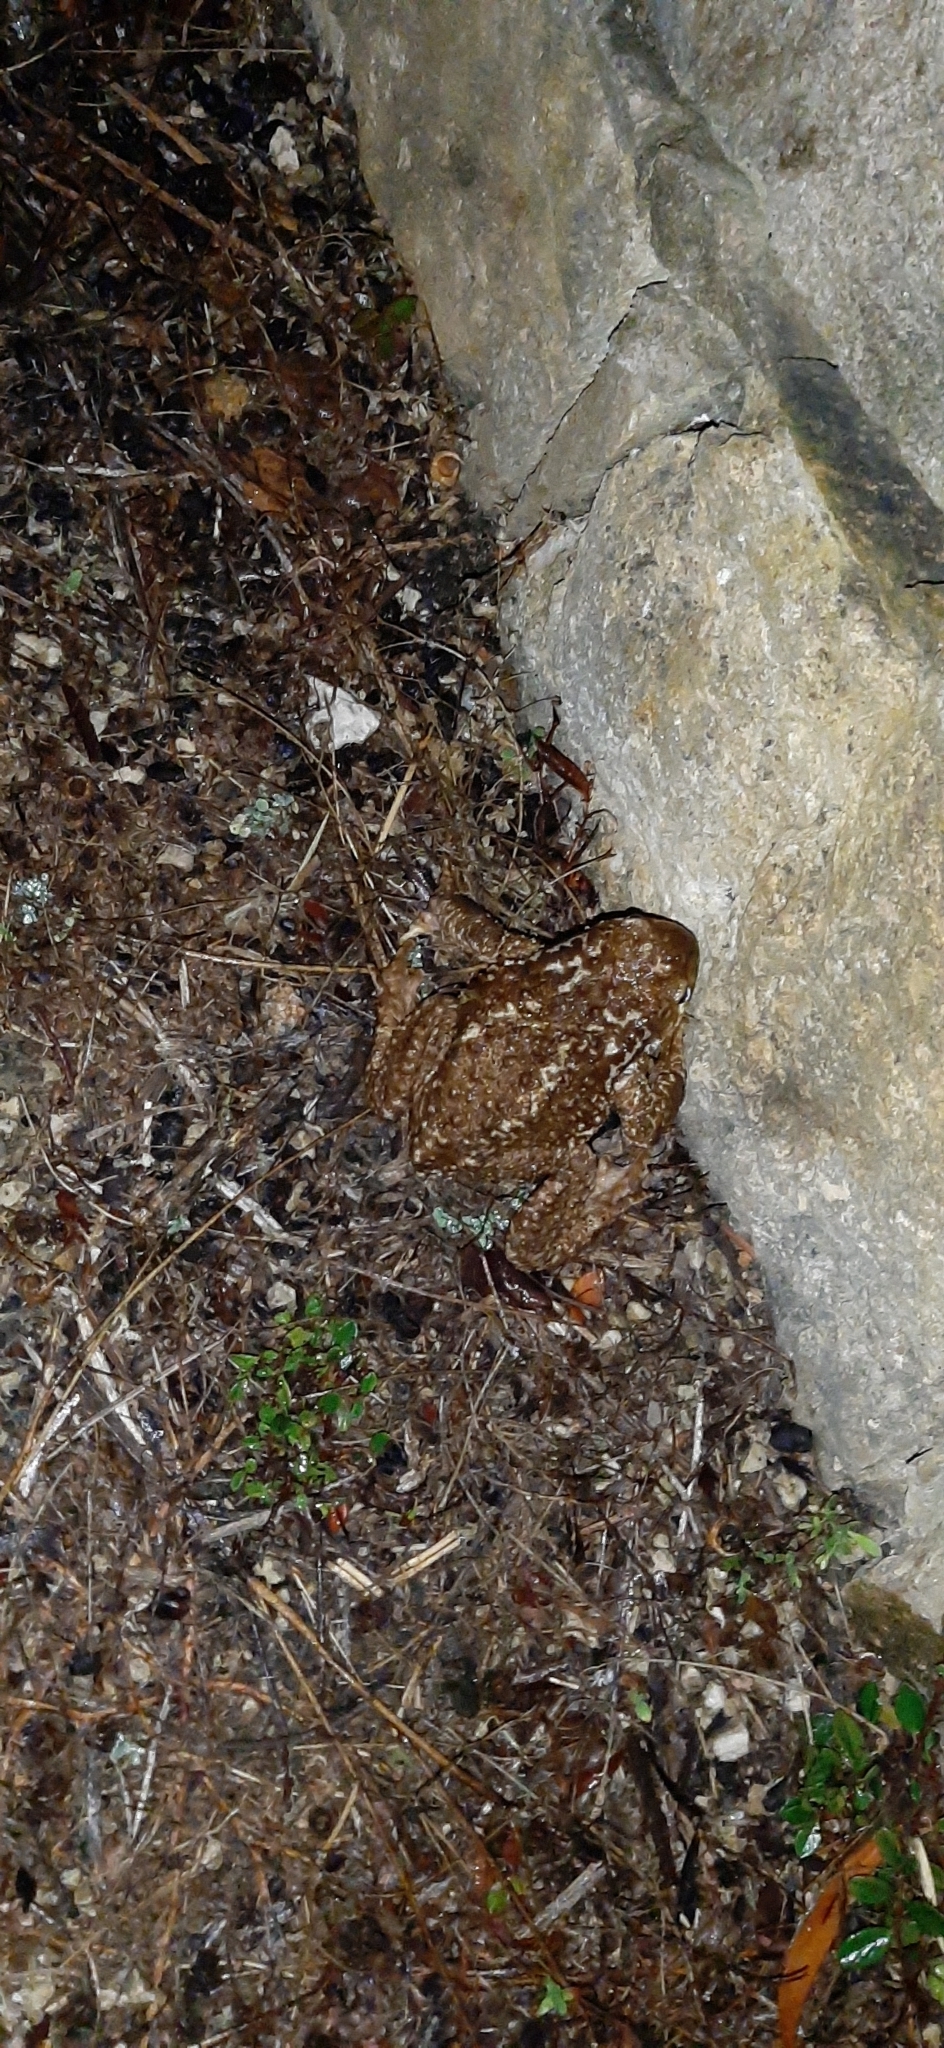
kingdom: Animalia
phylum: Chordata
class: Amphibia
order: Anura
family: Bufonidae
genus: Bufo
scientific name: Bufo spinosus
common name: Western common toad
